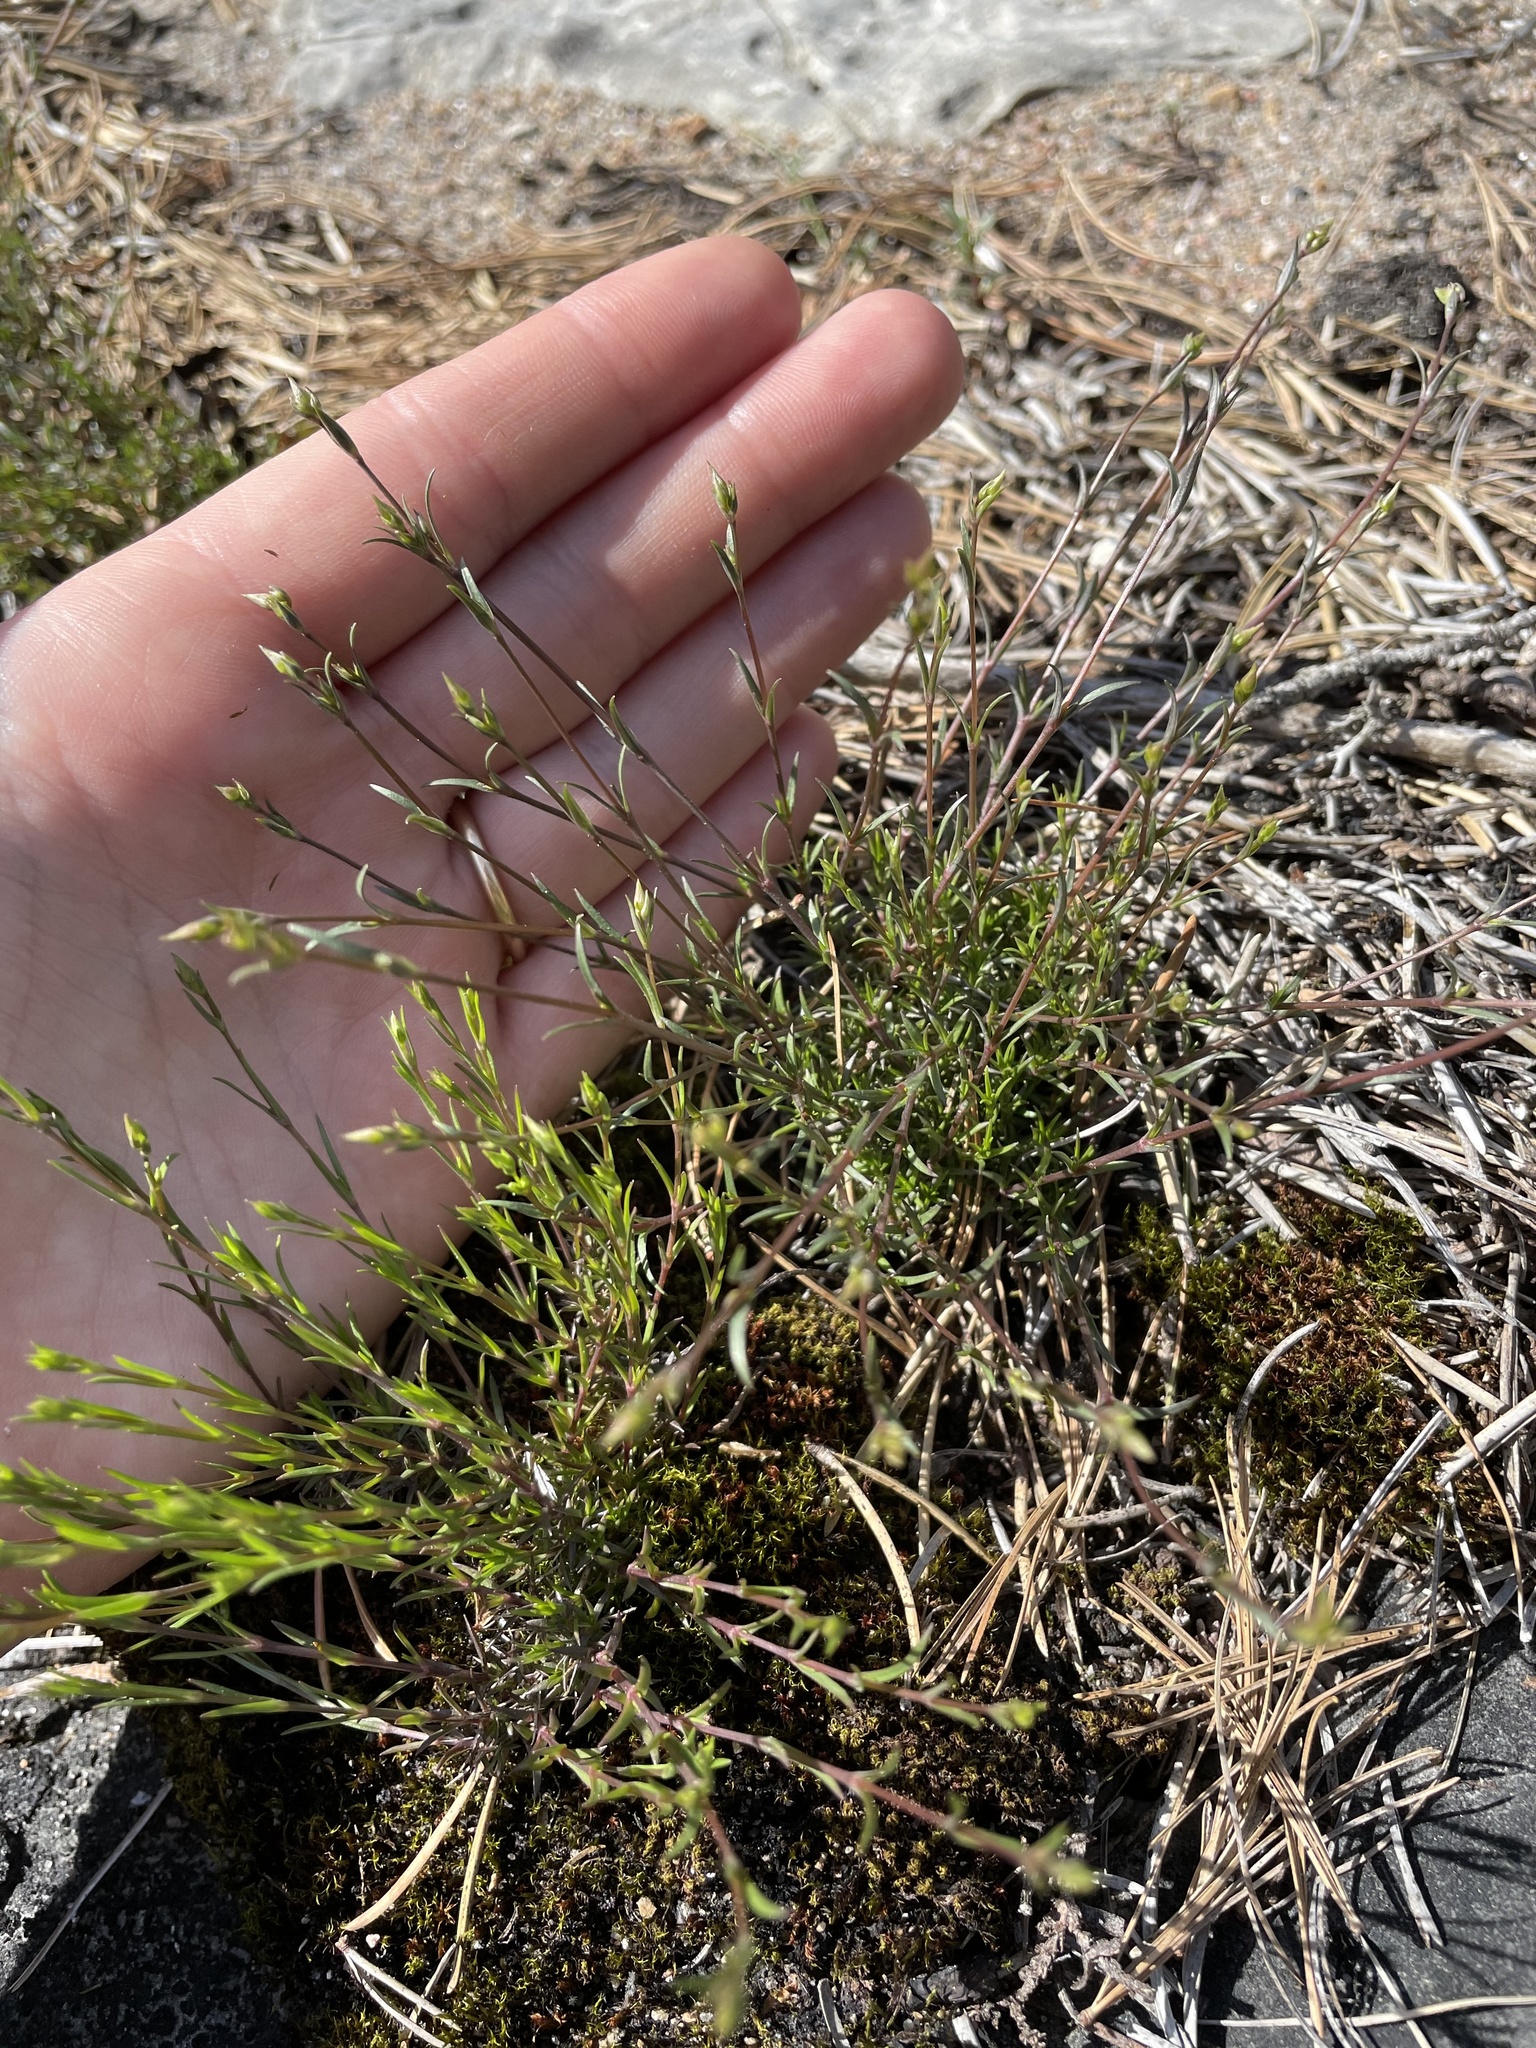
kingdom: Plantae
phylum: Tracheophyta
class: Magnoliopsida
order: Caryophyllales
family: Caryophyllaceae
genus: Sabulina
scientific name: Sabulina michauxii
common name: Michaux's stitchwort
